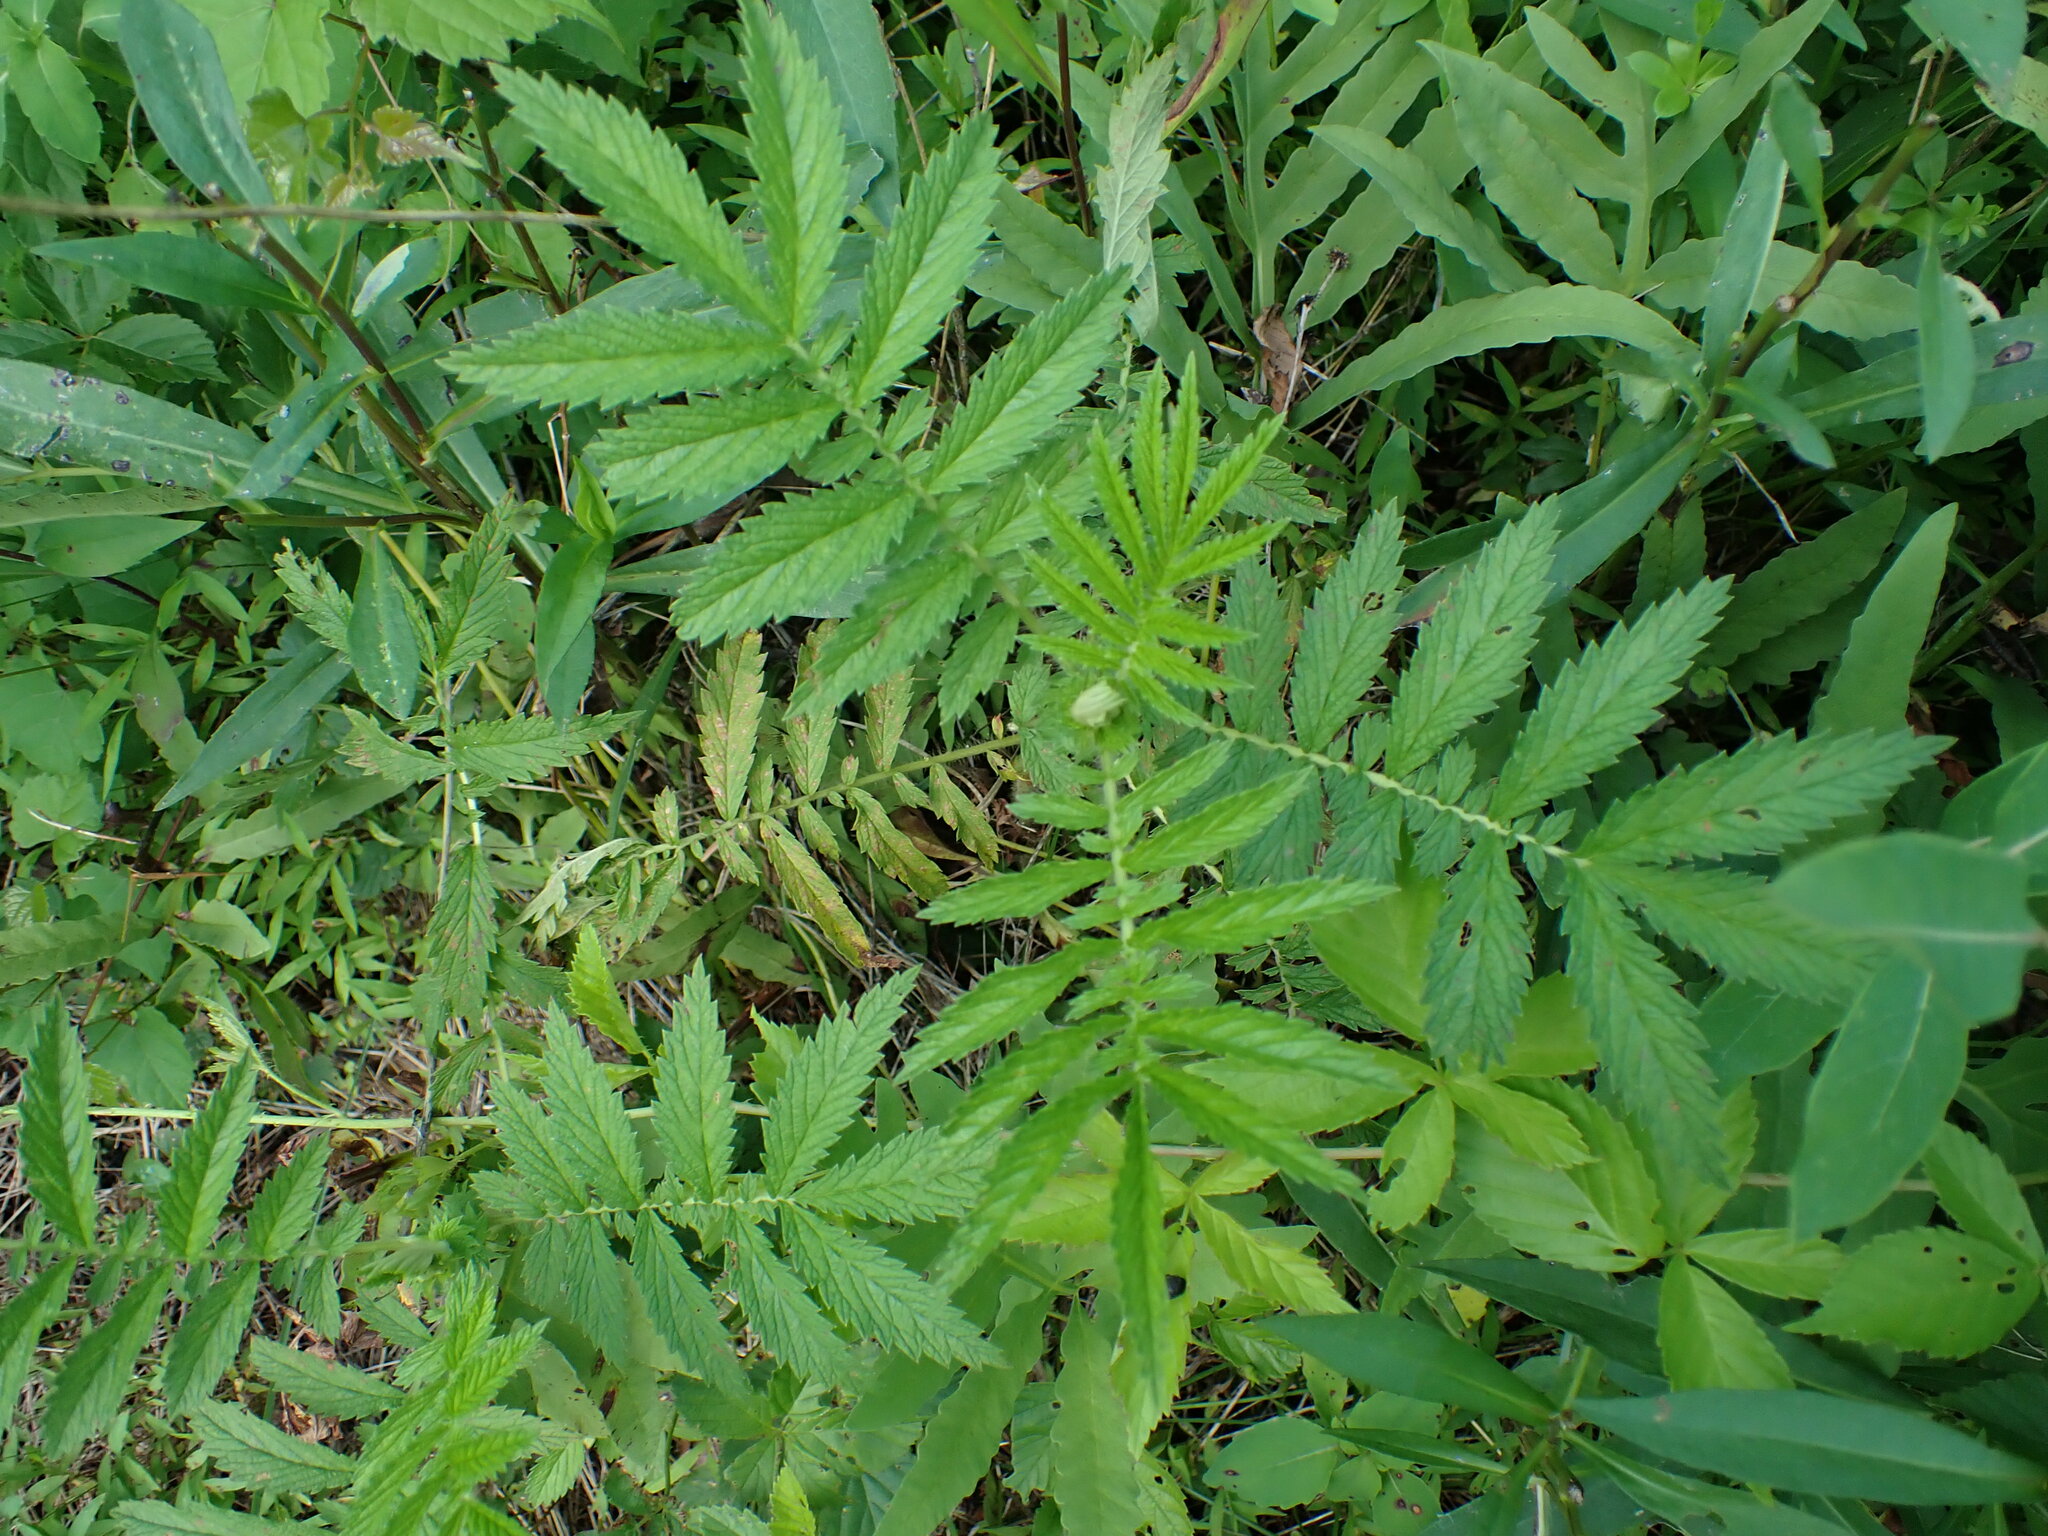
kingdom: Plantae
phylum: Tracheophyta
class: Magnoliopsida
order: Rosales
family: Rosaceae
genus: Agrimonia
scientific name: Agrimonia parviflora
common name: Harvest-lice
